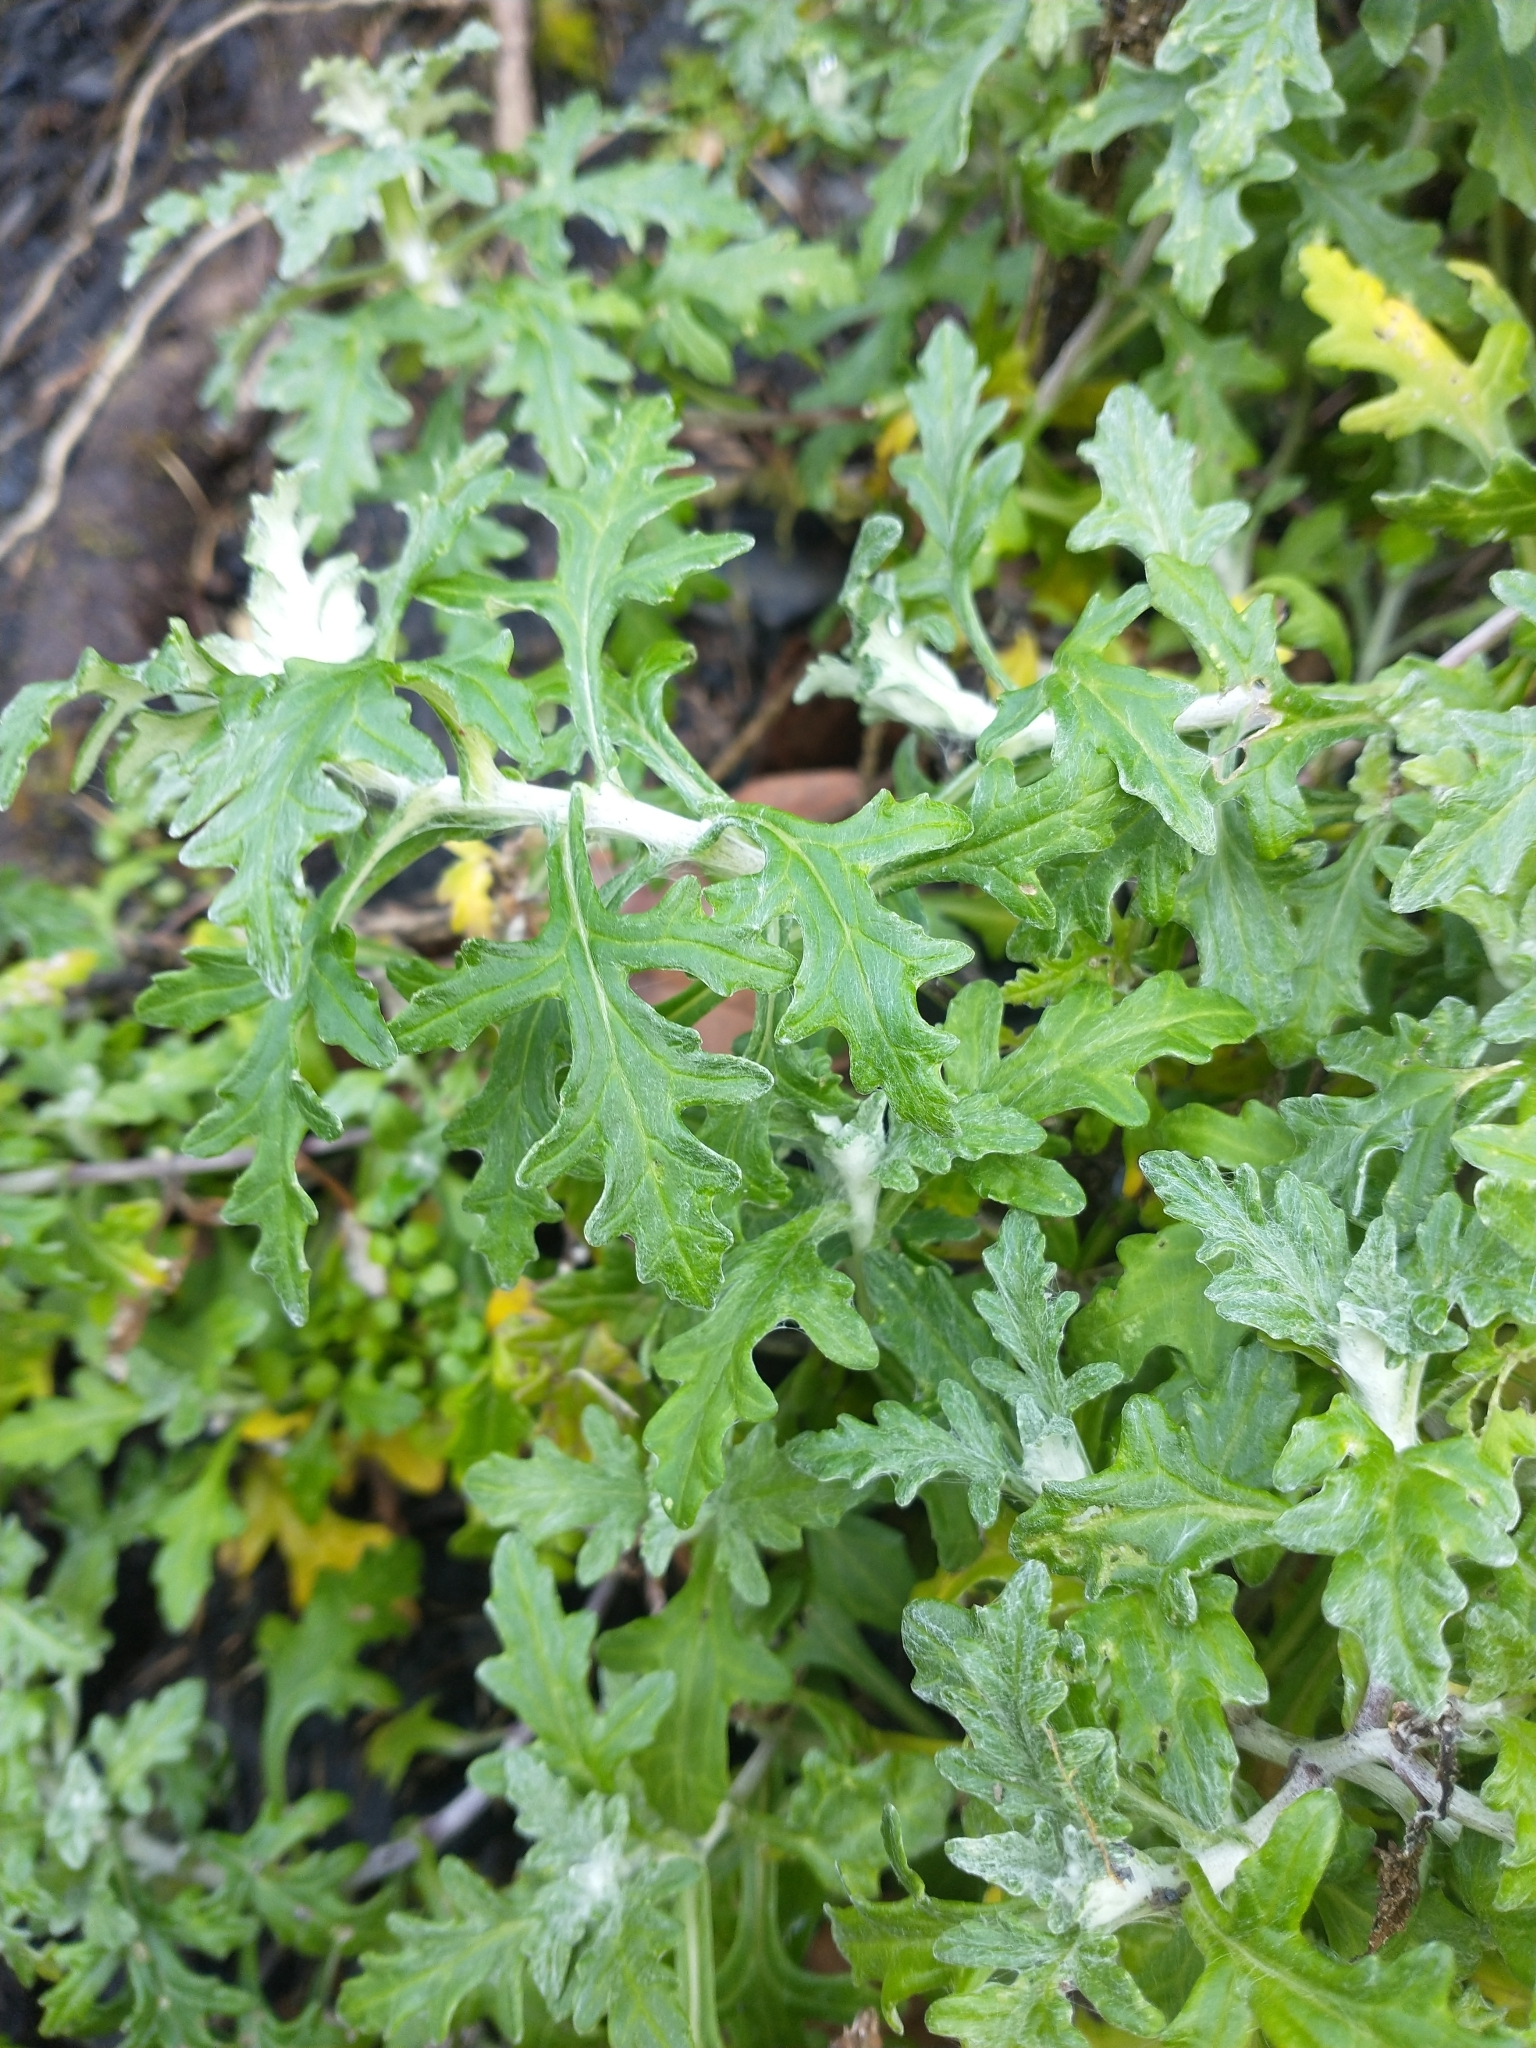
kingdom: Plantae
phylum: Tracheophyta
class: Magnoliopsida
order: Asterales
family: Asteraceae
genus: Eriophyllum
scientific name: Eriophyllum staechadifolium
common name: Lizardtail
